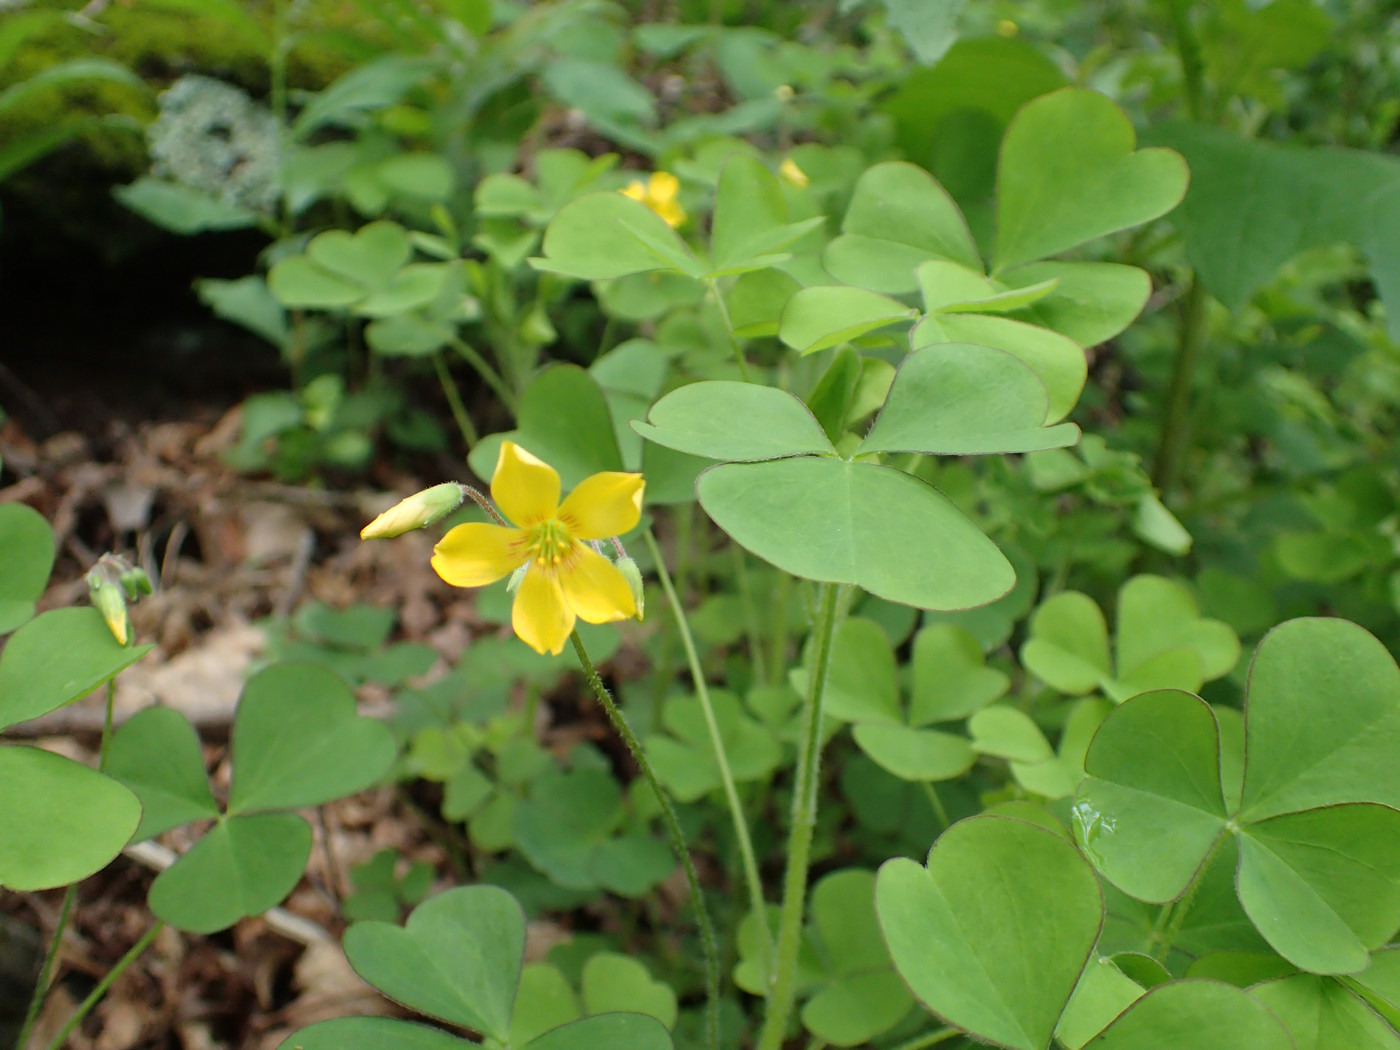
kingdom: Plantae
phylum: Tracheophyta
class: Magnoliopsida
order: Oxalidales
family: Oxalidaceae
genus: Oxalis
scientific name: Oxalis grandis
